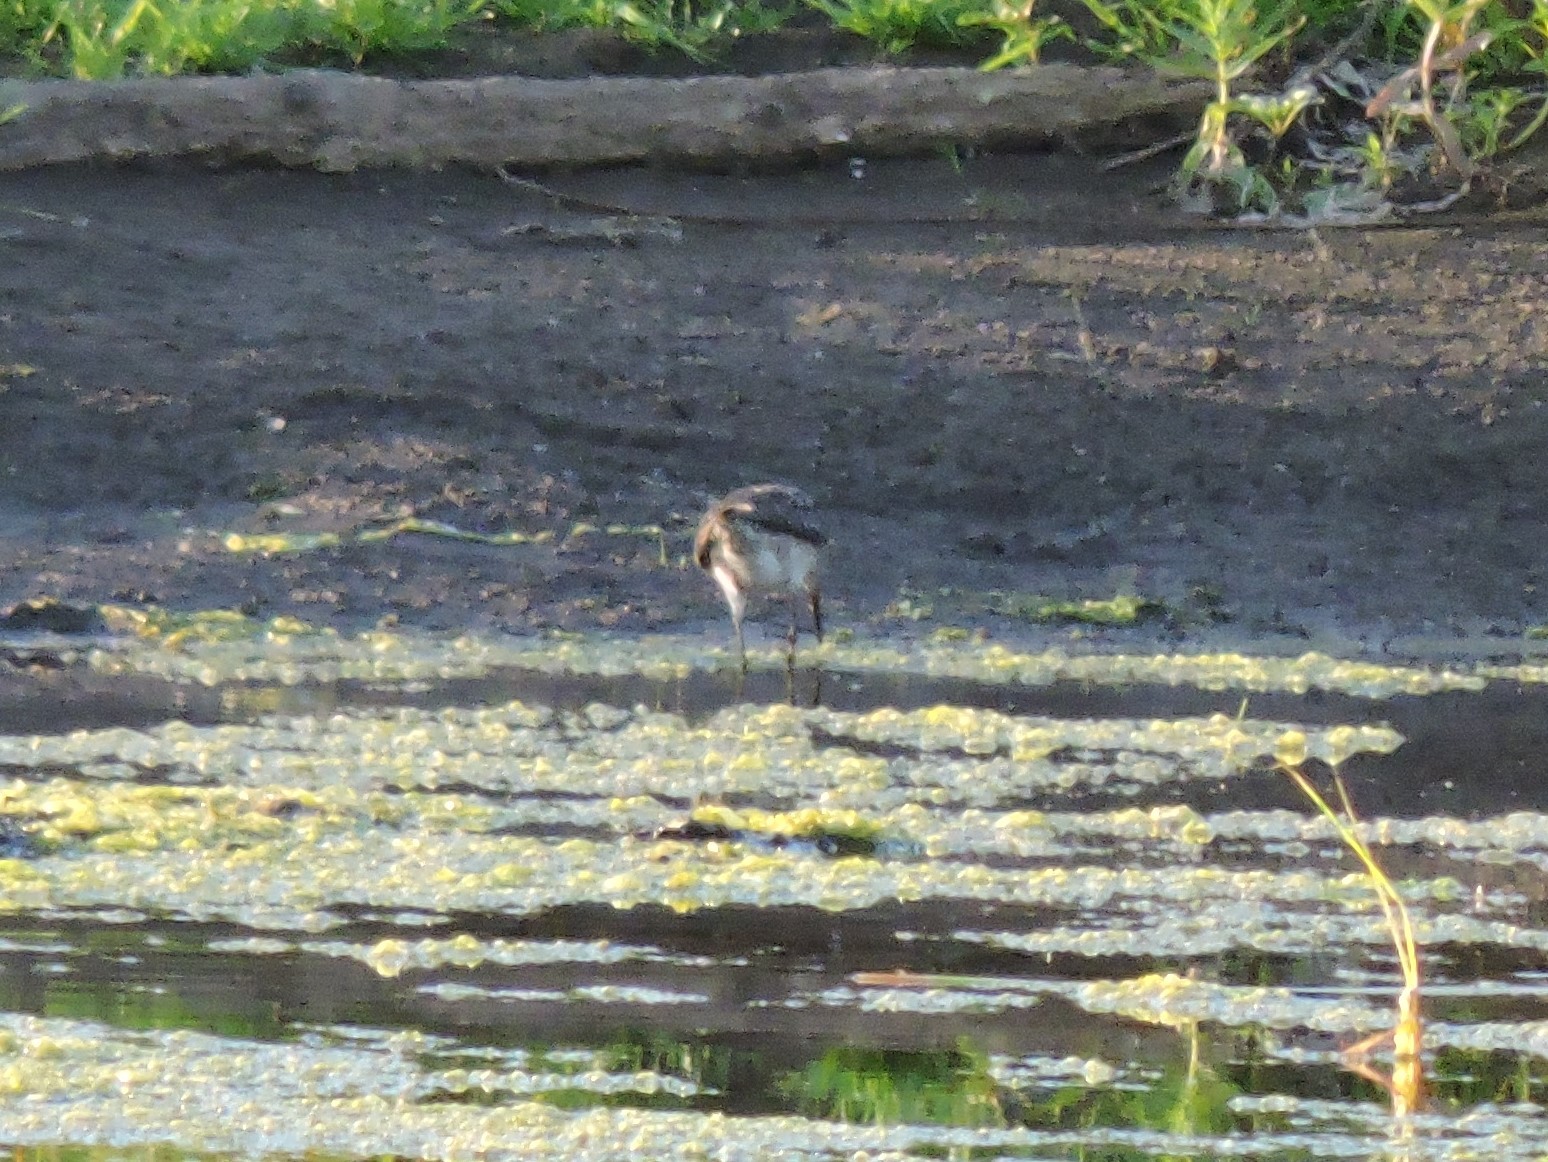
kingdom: Animalia
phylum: Chordata
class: Aves
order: Charadriiformes
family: Scolopacidae
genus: Tringa
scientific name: Tringa glareola
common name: Wood sandpiper
